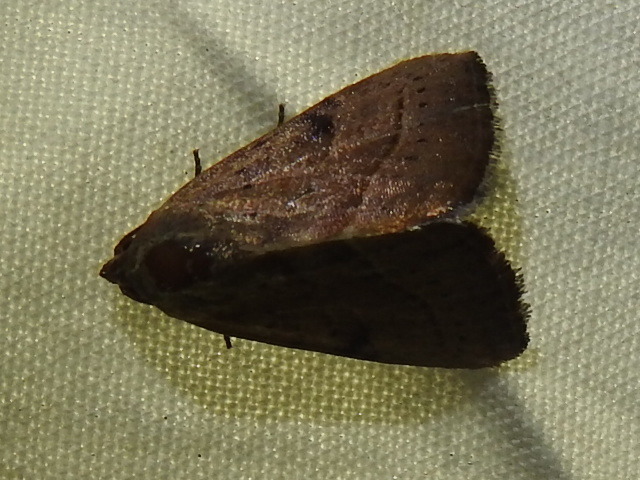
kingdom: Animalia
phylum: Arthropoda
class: Insecta
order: Lepidoptera
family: Noctuidae
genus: Galgula
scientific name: Galgula partita
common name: Wedgeling
